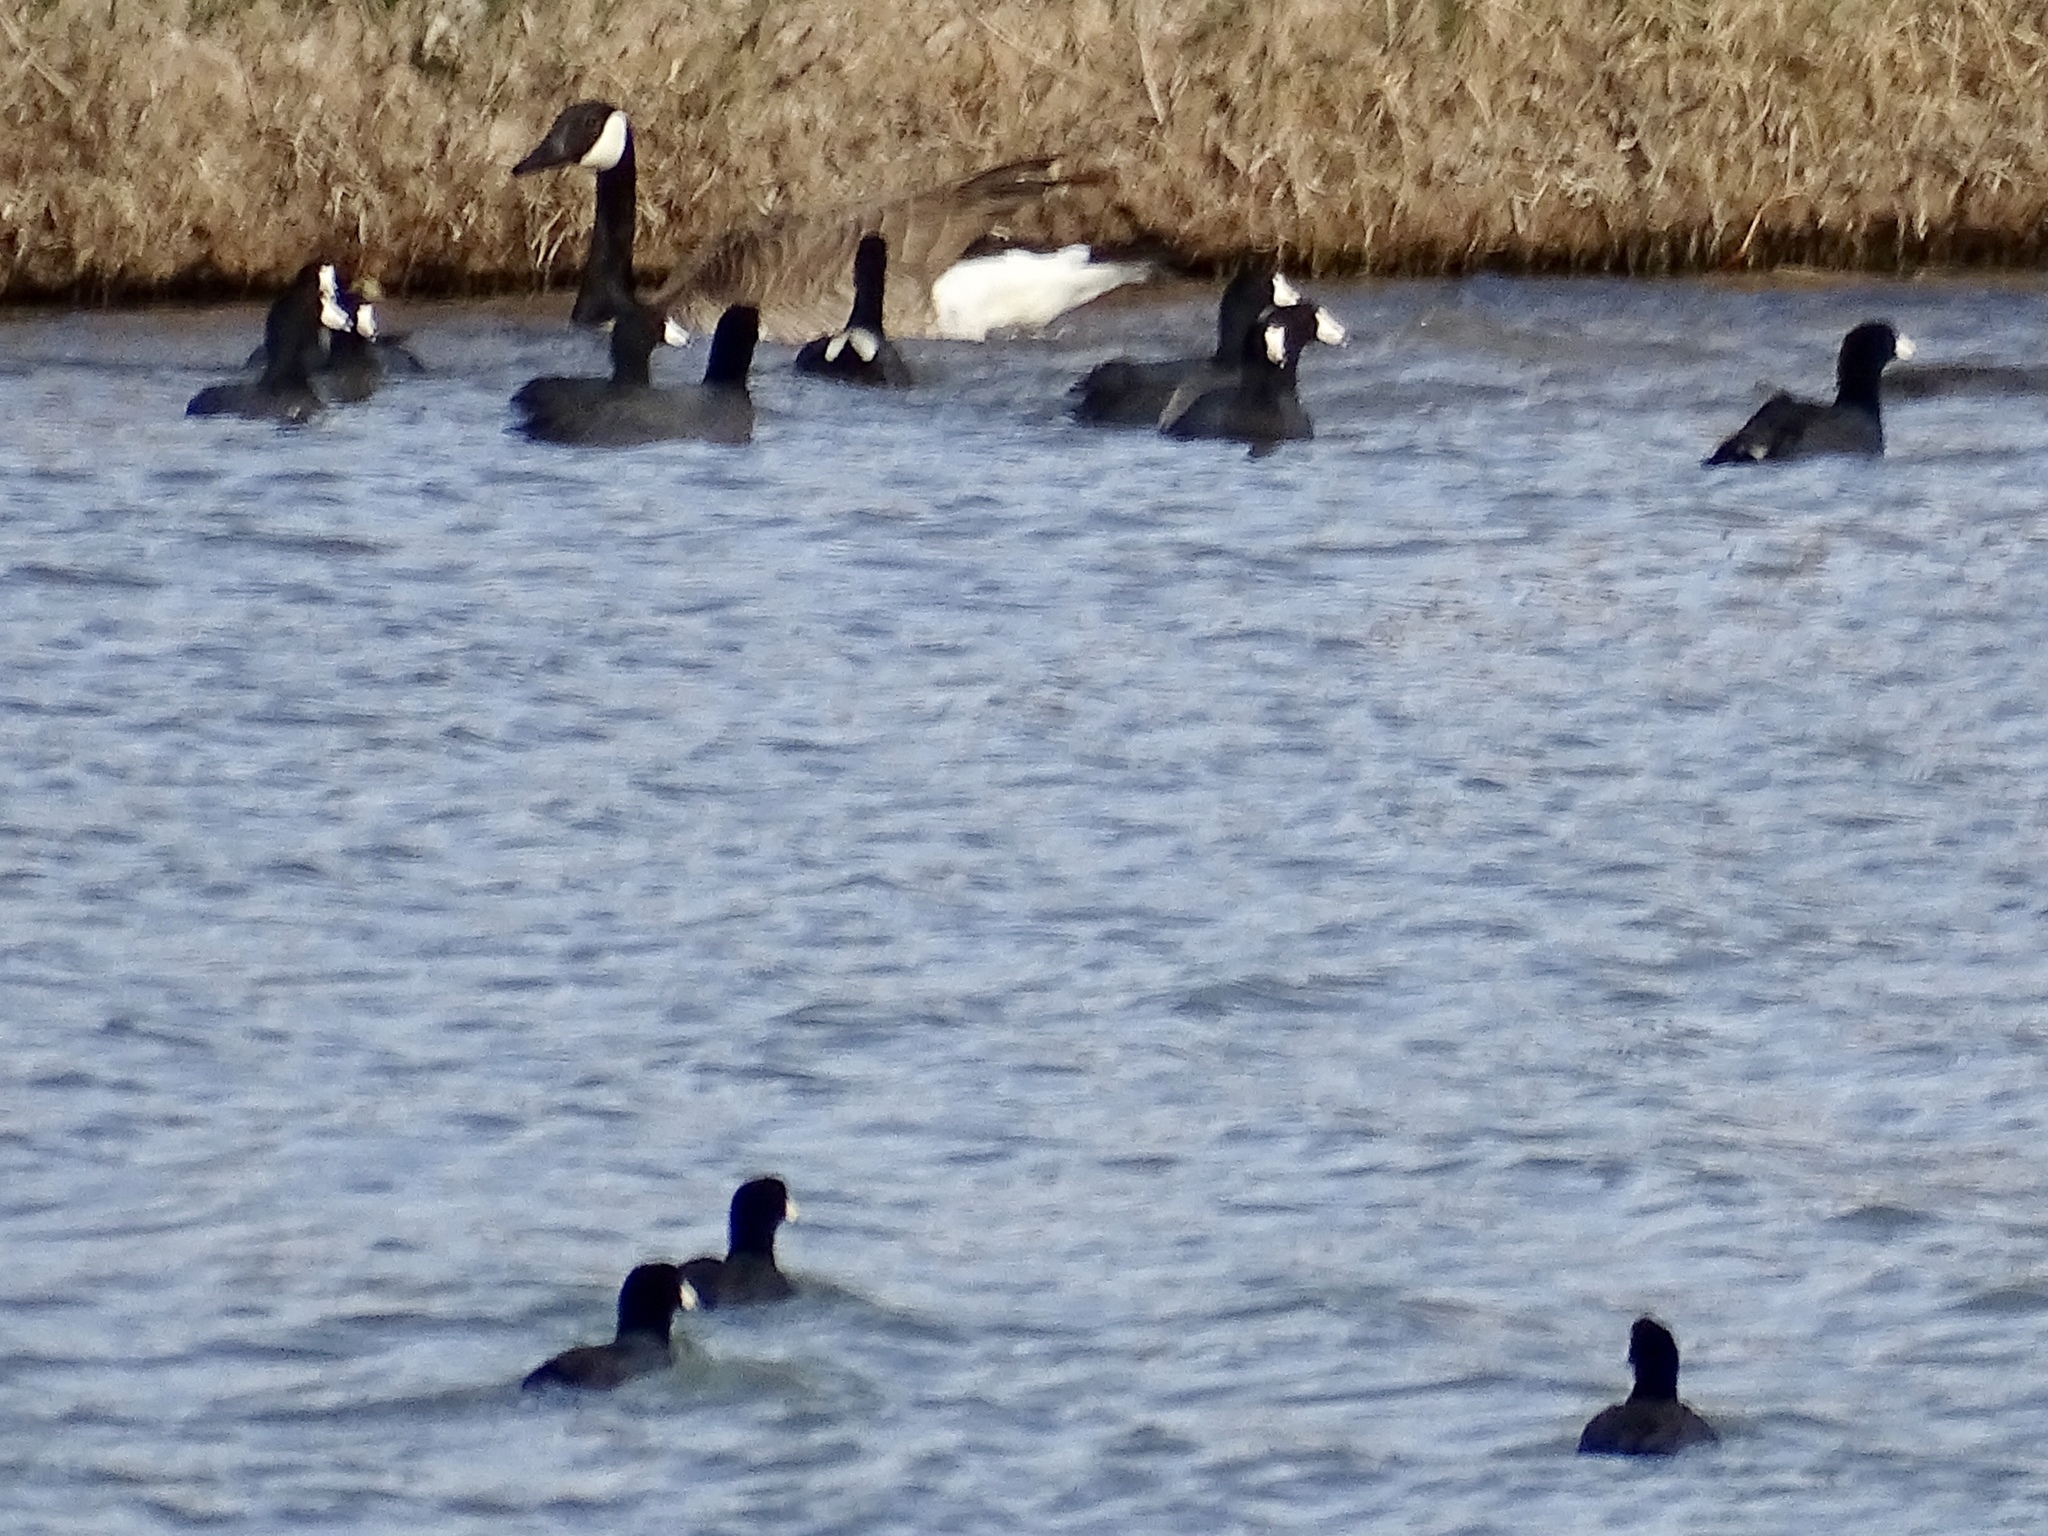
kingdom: Animalia
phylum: Chordata
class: Aves
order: Gruiformes
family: Rallidae
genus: Fulica
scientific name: Fulica americana
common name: American coot
